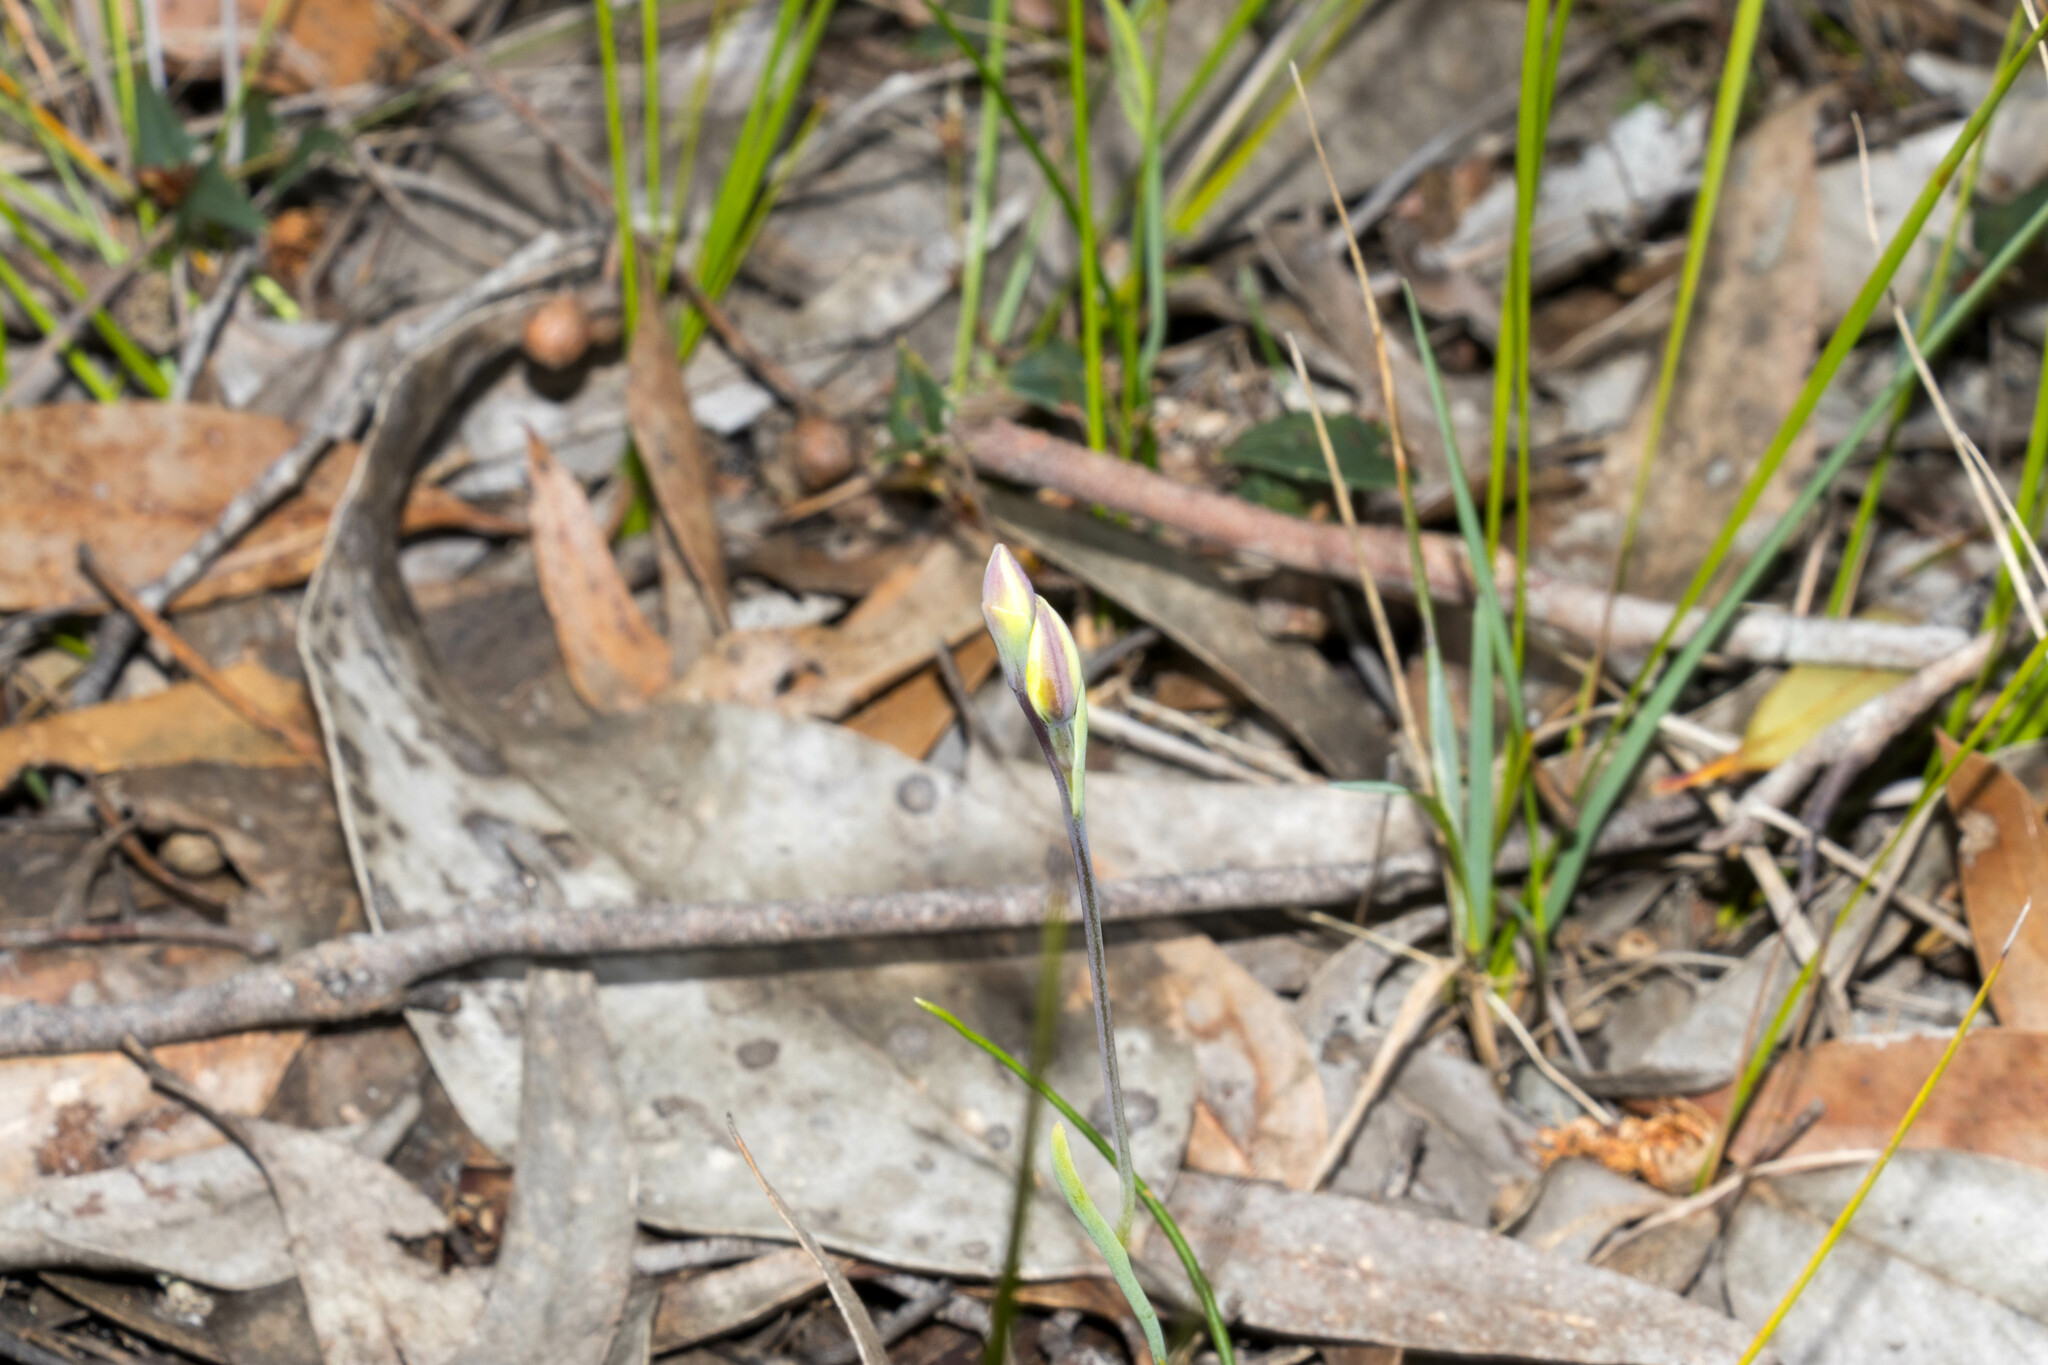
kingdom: Plantae
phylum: Tracheophyta
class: Liliopsida
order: Asparagales
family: Orchidaceae
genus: Thelymitra
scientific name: Thelymitra antennifera
